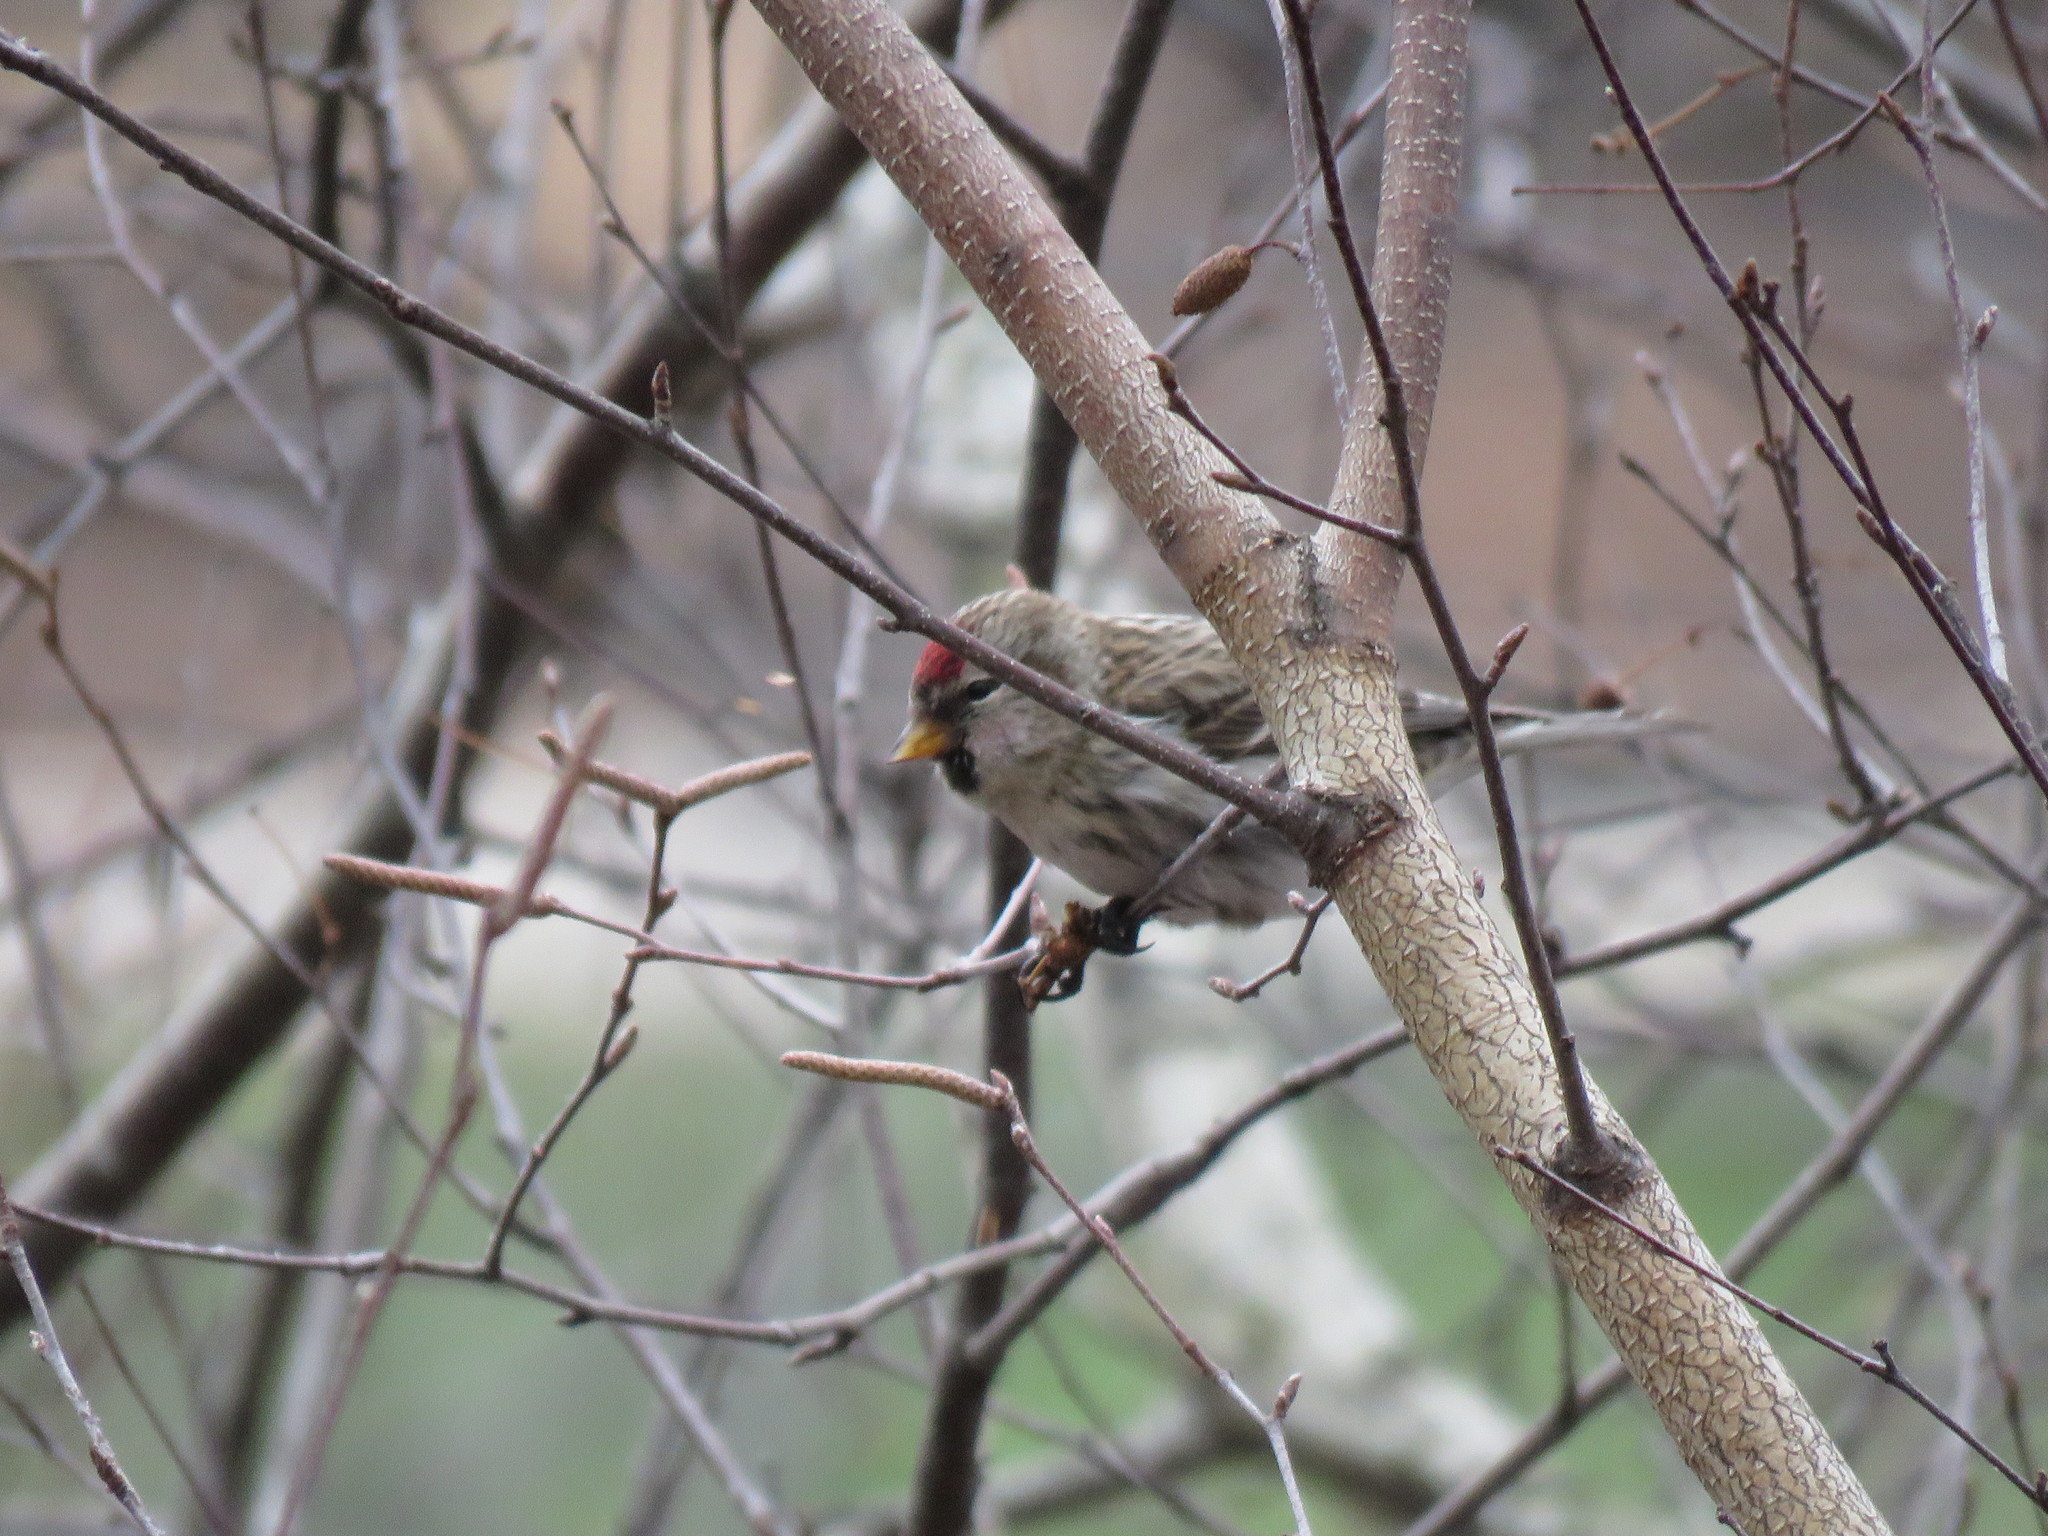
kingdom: Animalia
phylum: Chordata
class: Aves
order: Passeriformes
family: Fringillidae
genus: Acanthis
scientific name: Acanthis flammea
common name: Common redpoll
